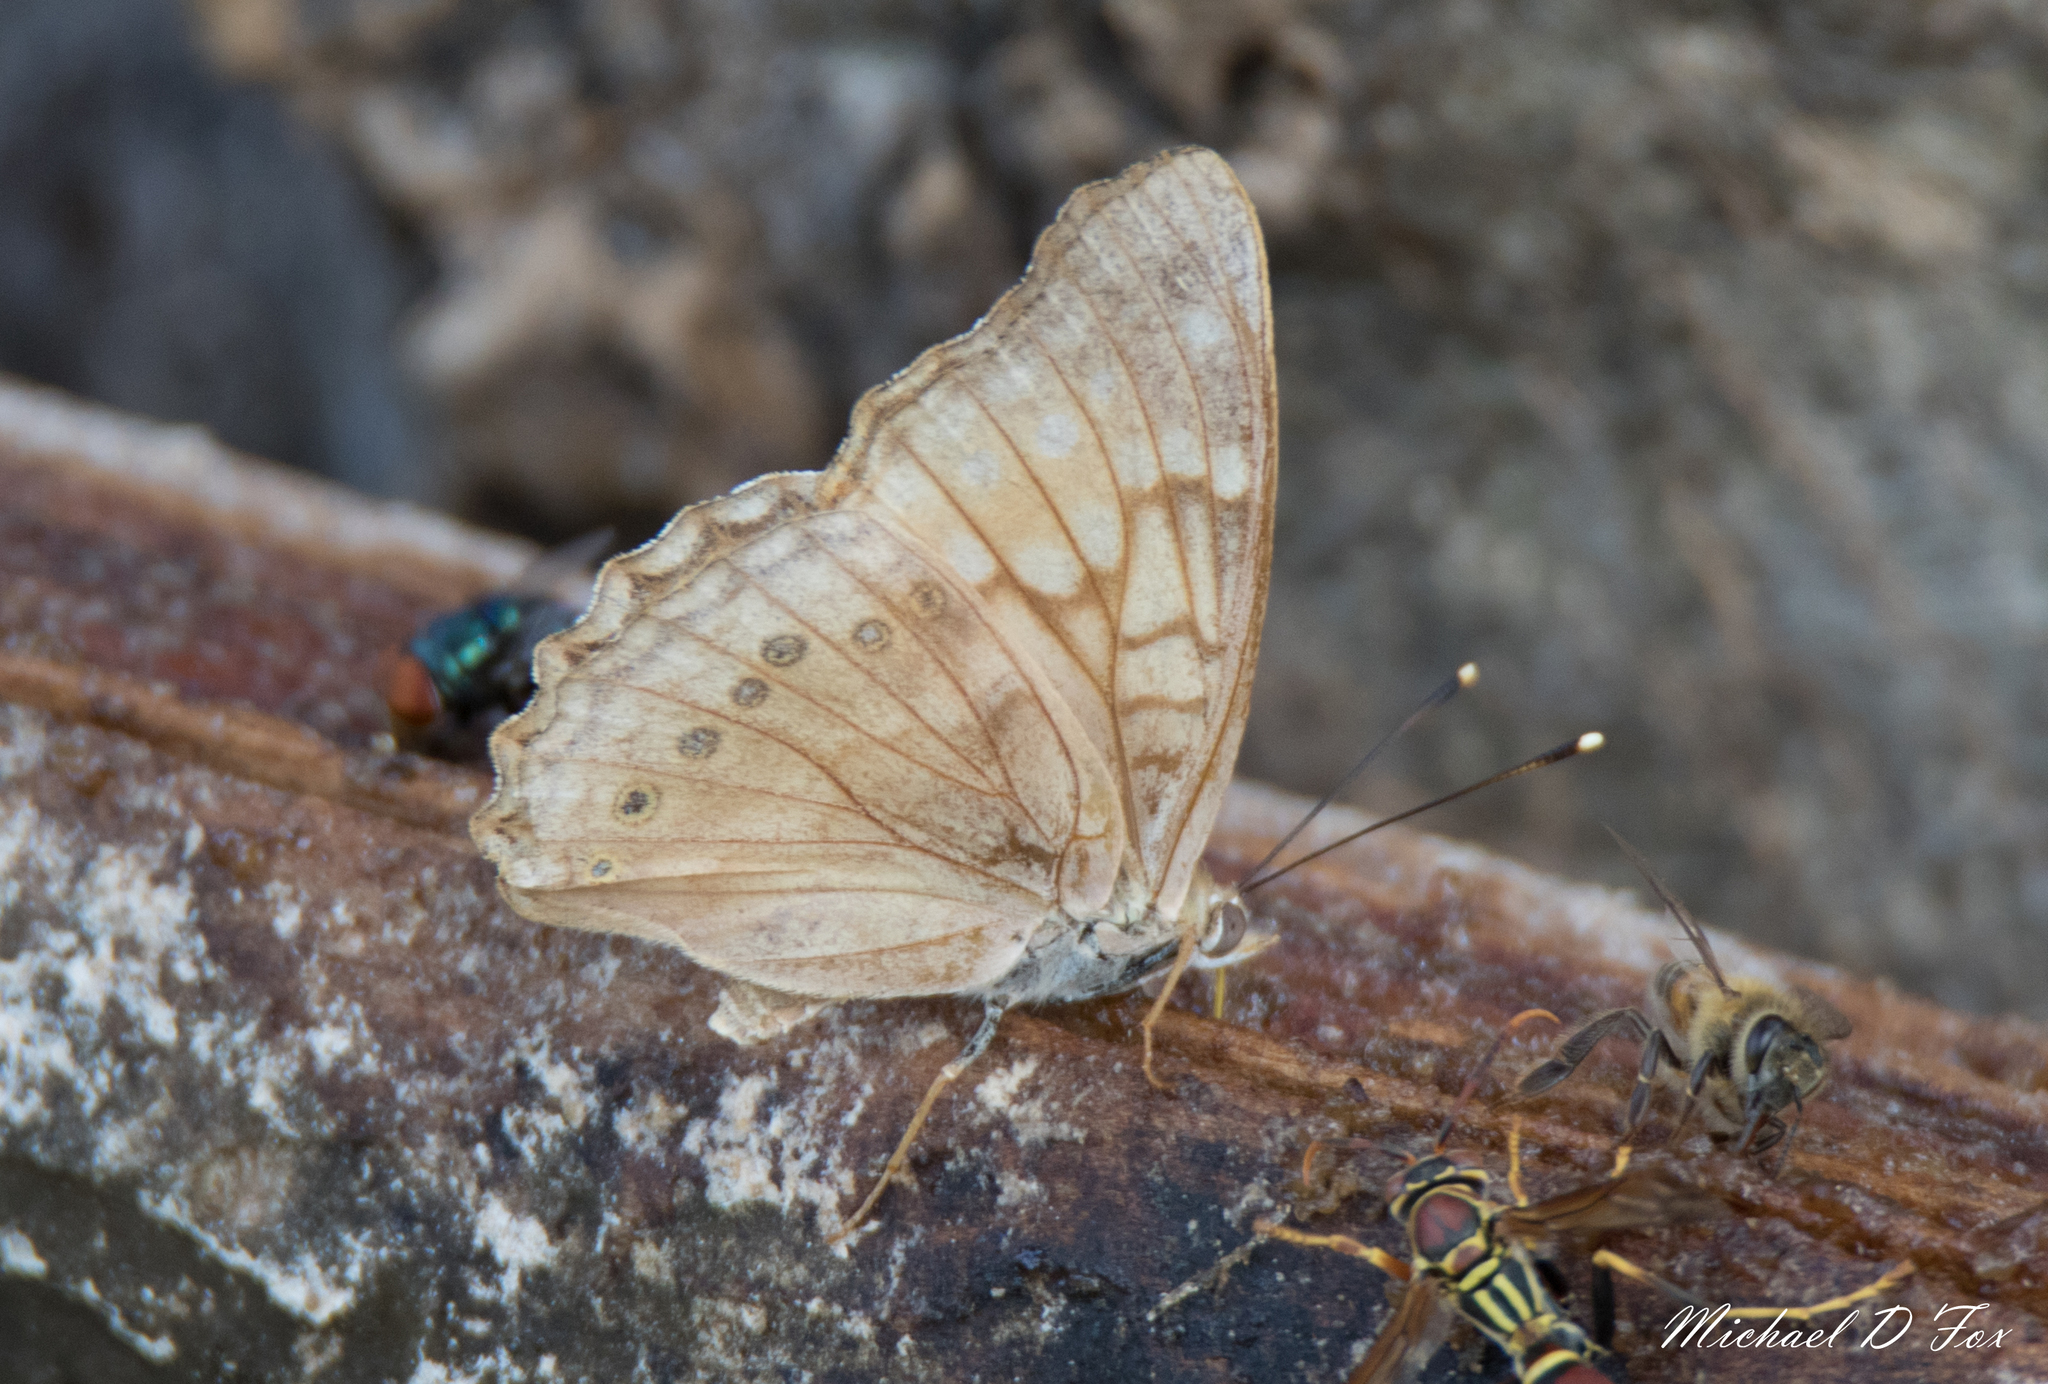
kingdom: Animalia
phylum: Arthropoda
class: Insecta
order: Lepidoptera
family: Nymphalidae
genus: Asterocampa
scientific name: Asterocampa clyton
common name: Tawny emperor
